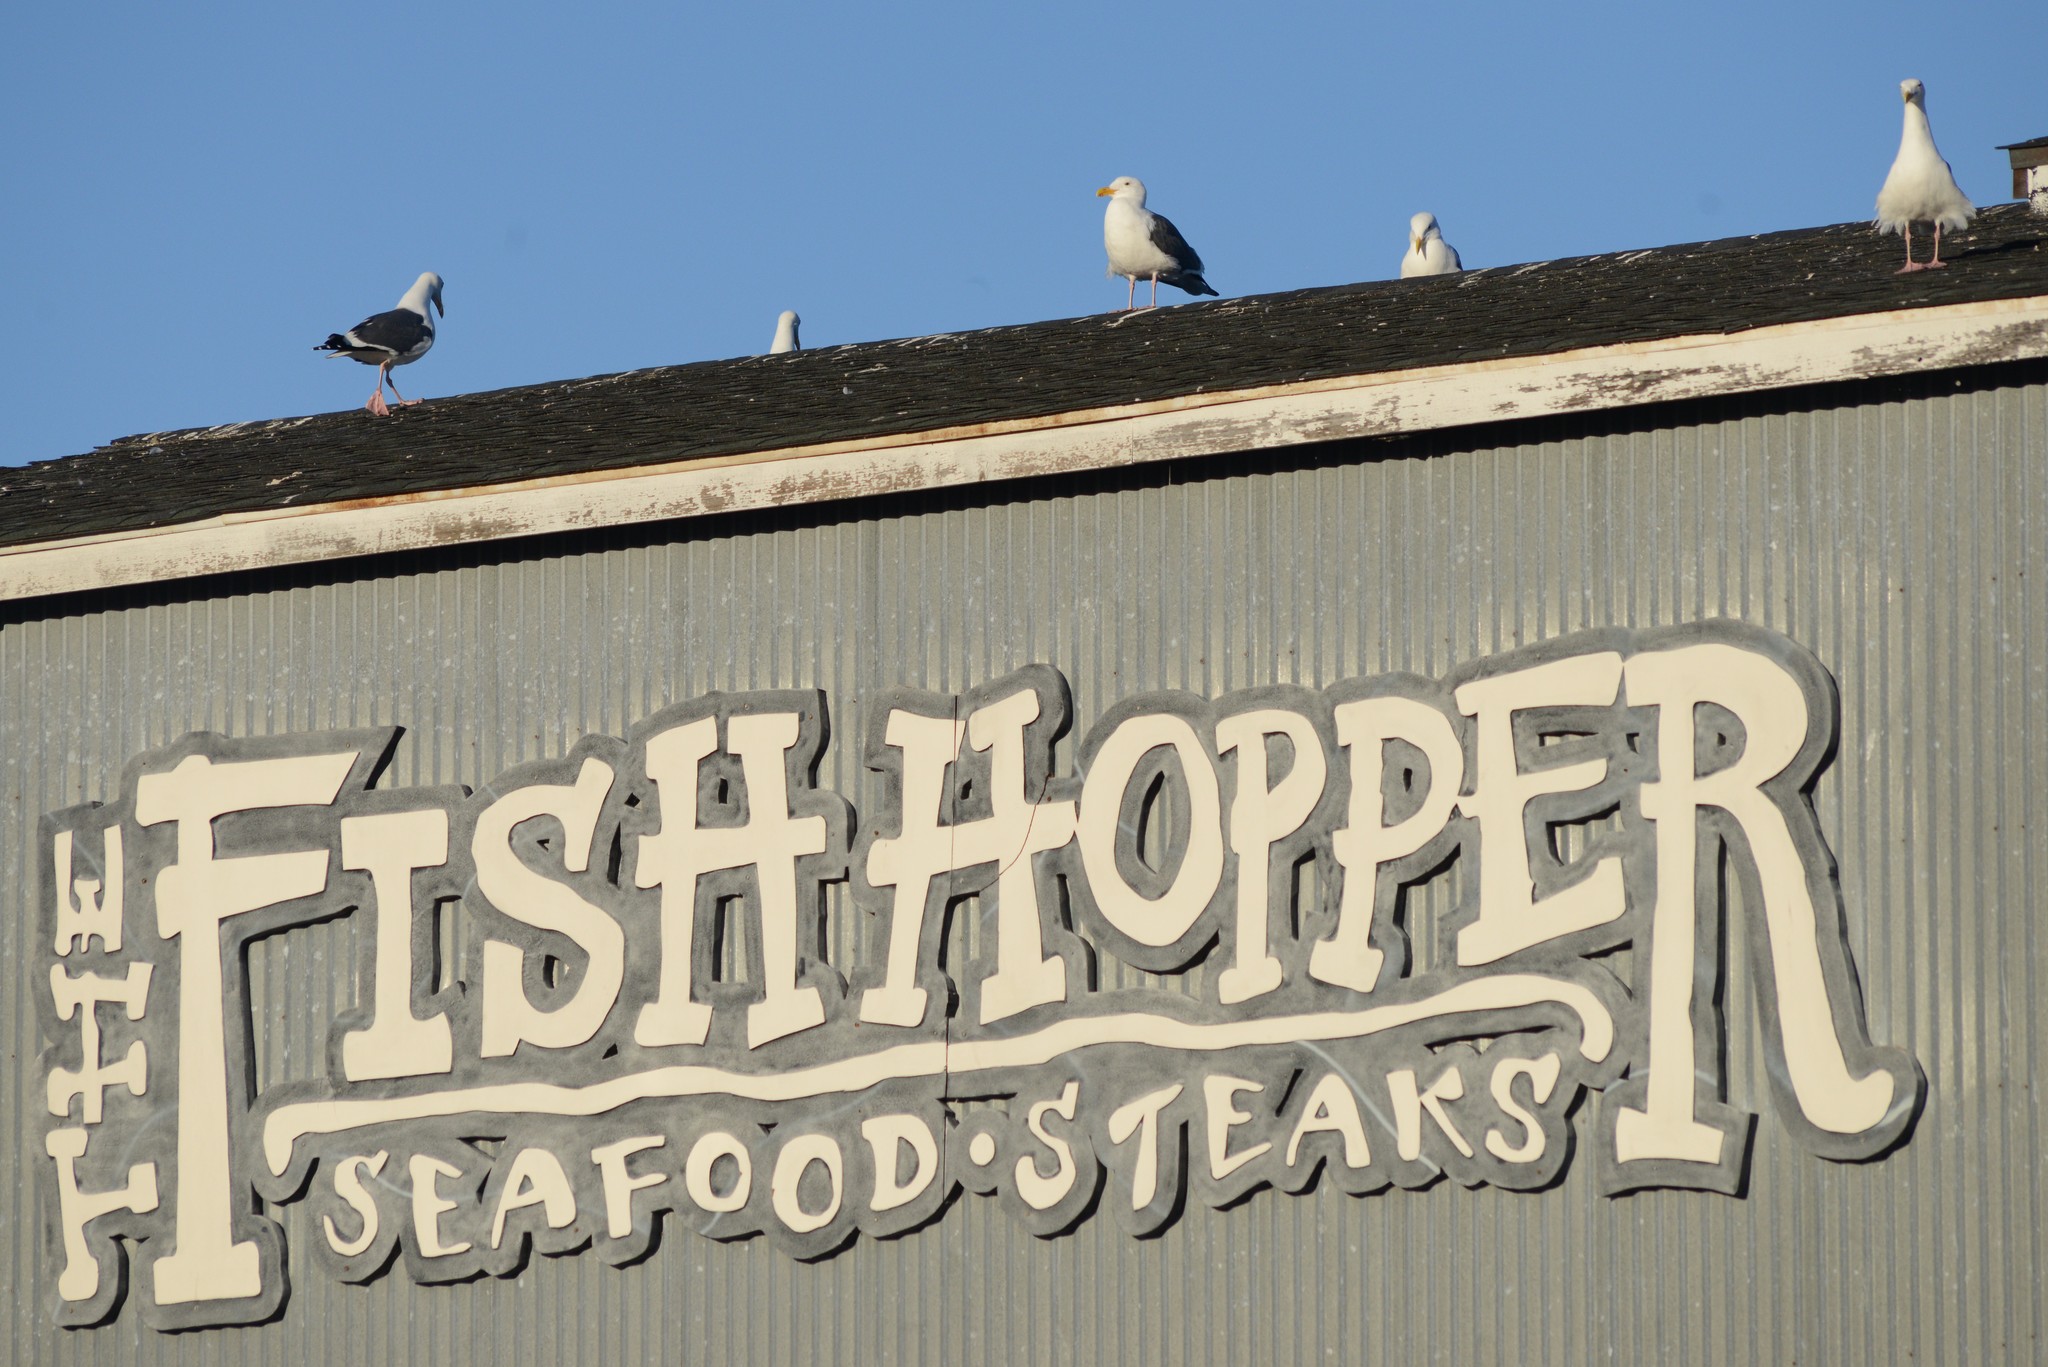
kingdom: Animalia
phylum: Chordata
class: Aves
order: Charadriiformes
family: Laridae
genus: Larus
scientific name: Larus occidentalis
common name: Western gull
